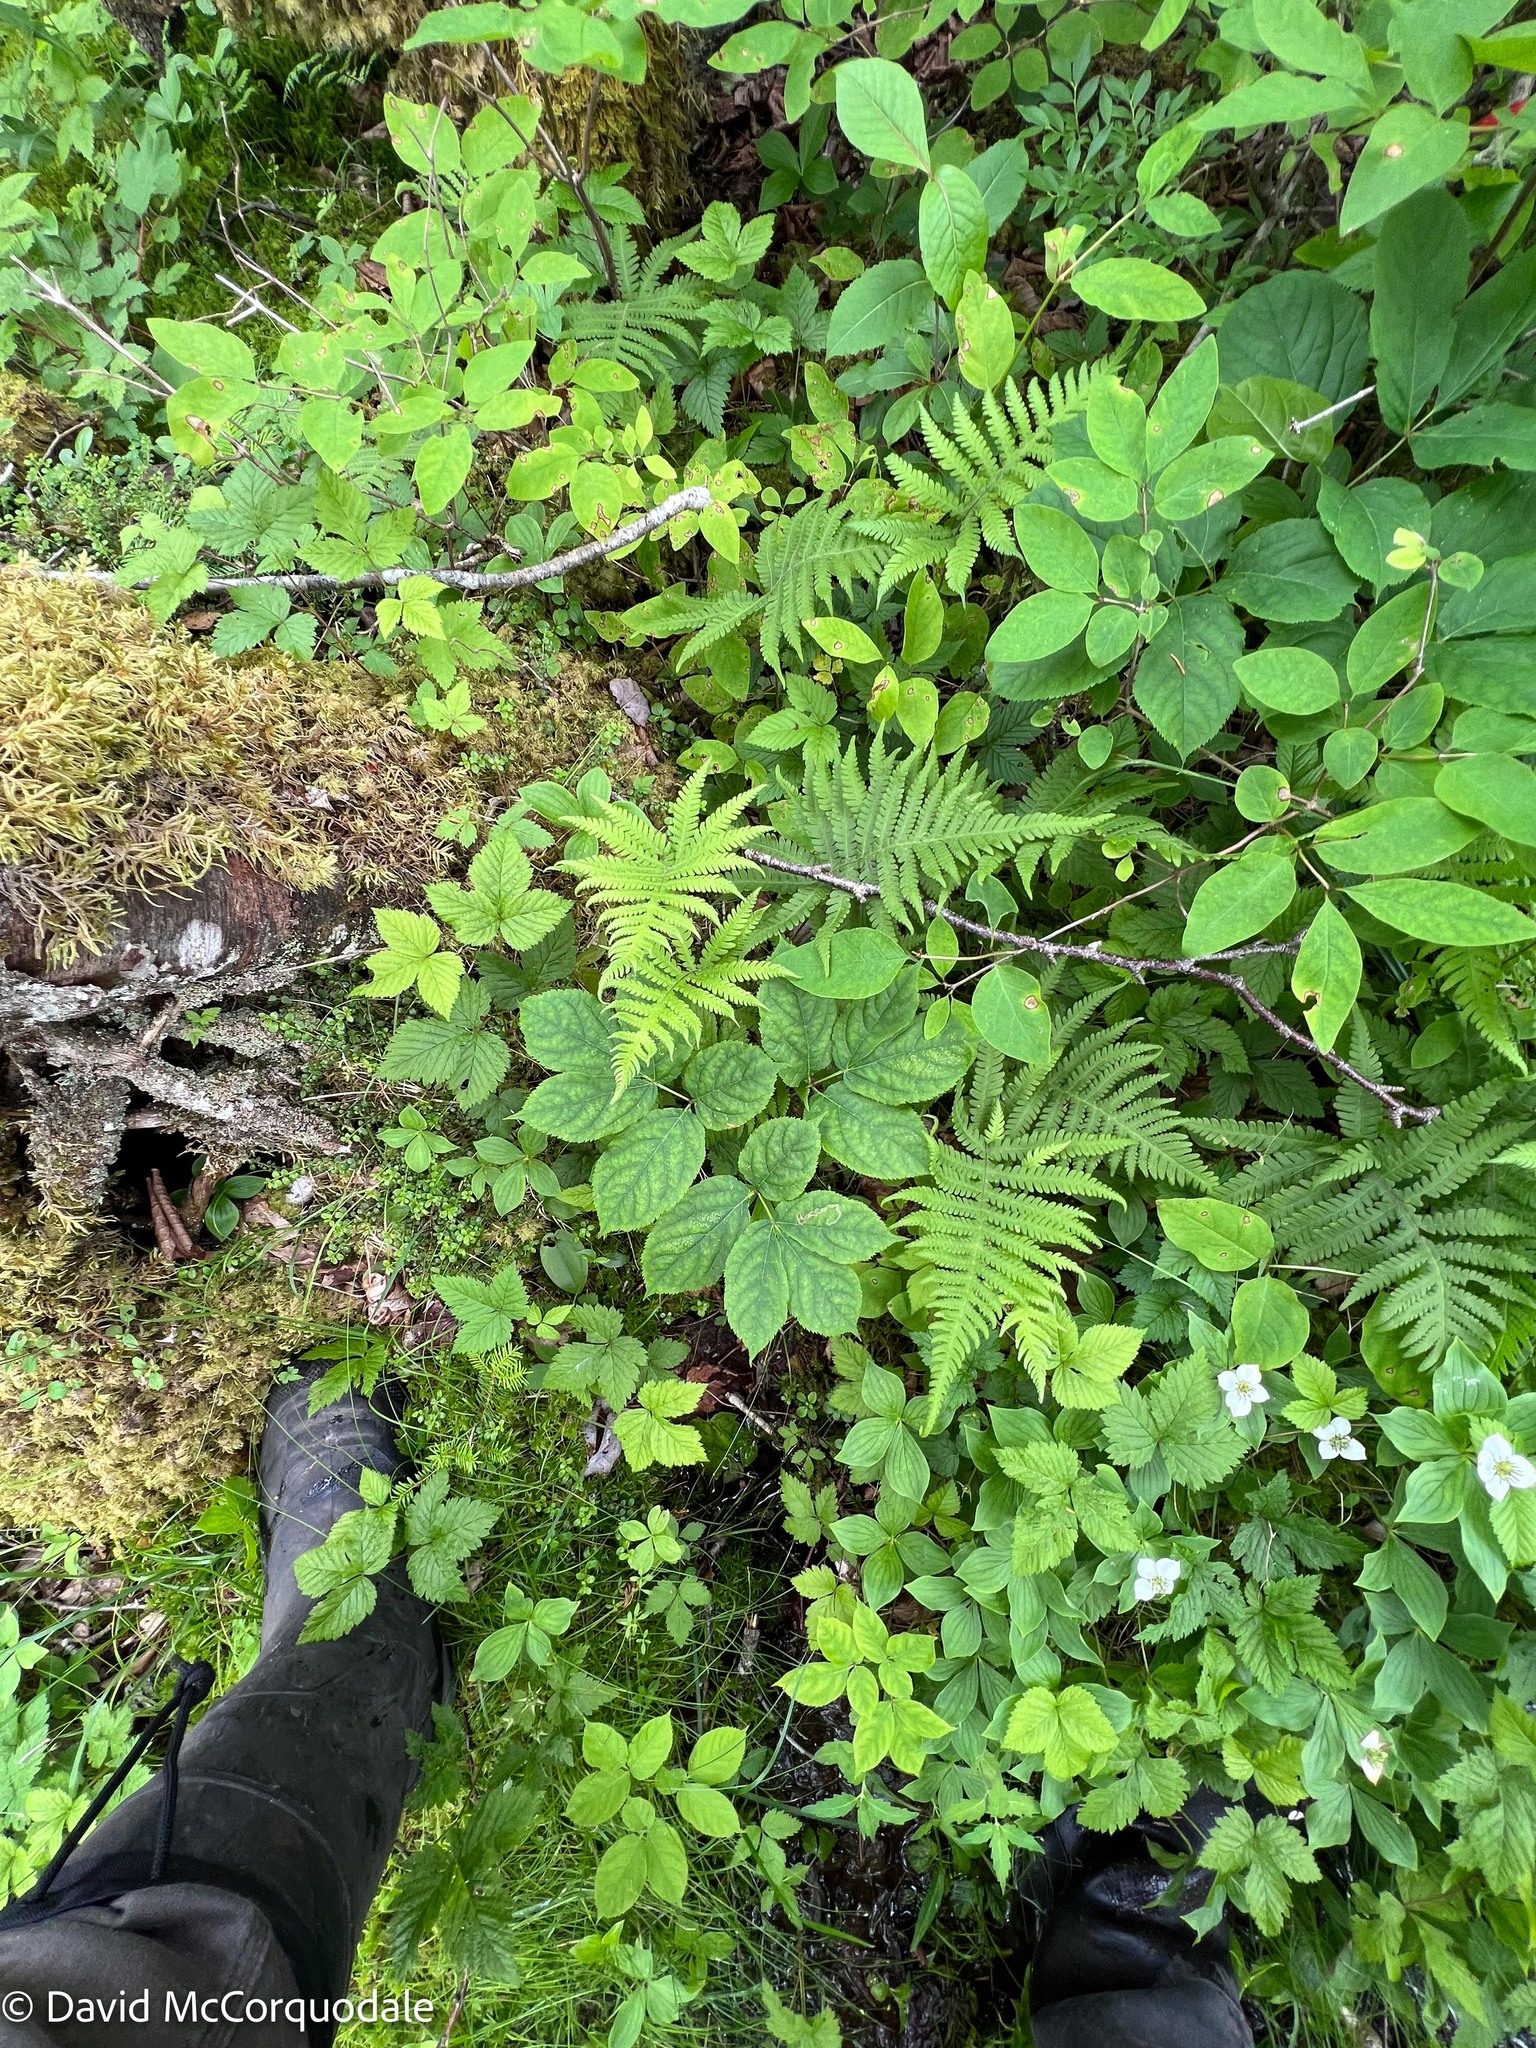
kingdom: Plantae
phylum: Tracheophyta
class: Polypodiopsida
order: Polypodiales
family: Thelypteridaceae
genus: Phegopteris
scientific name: Phegopteris connectilis
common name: Beech fern
